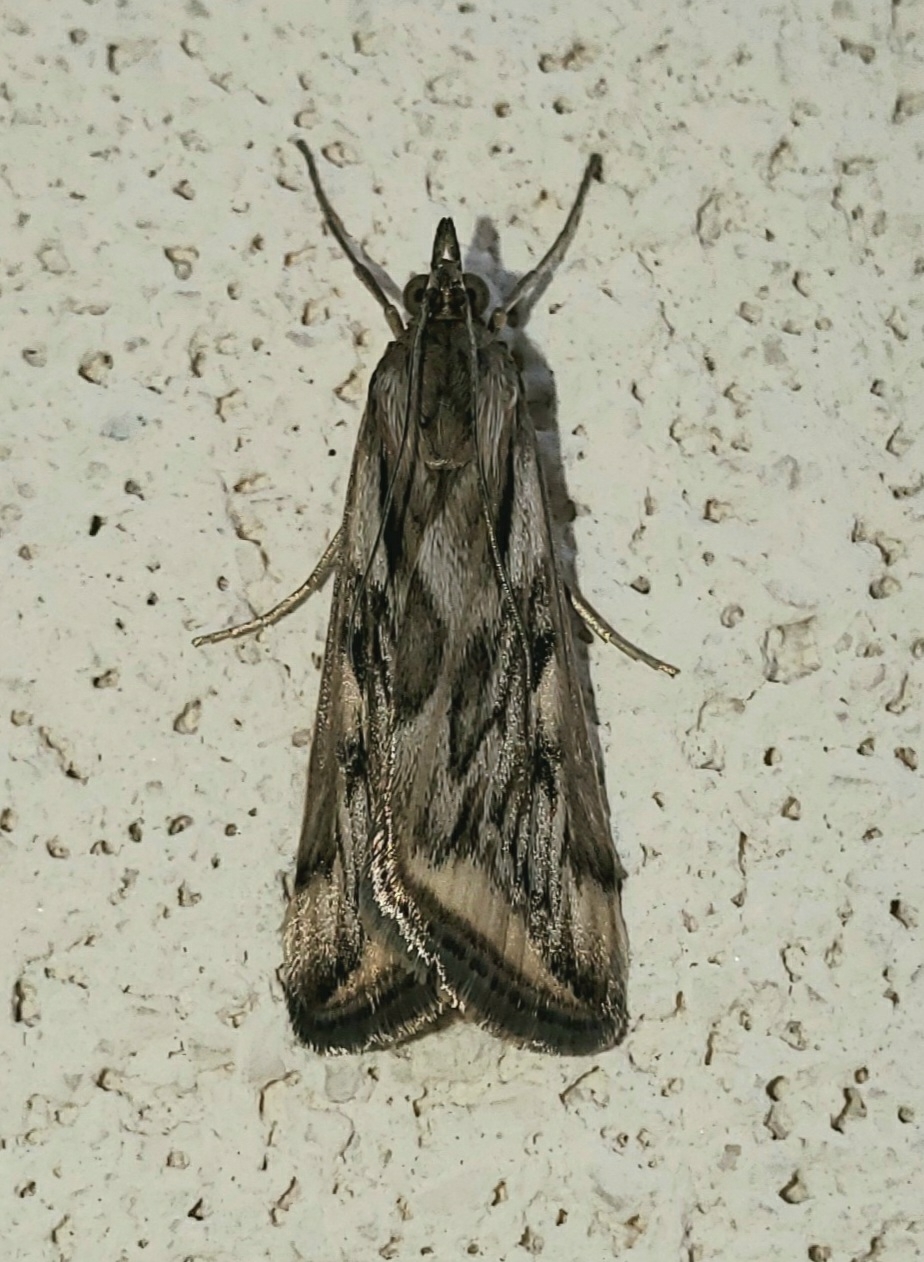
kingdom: Animalia
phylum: Arthropoda
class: Insecta
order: Lepidoptera
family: Crambidae
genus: Loxostege
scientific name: Loxostege cereralis
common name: Alfalfa webworm moth
